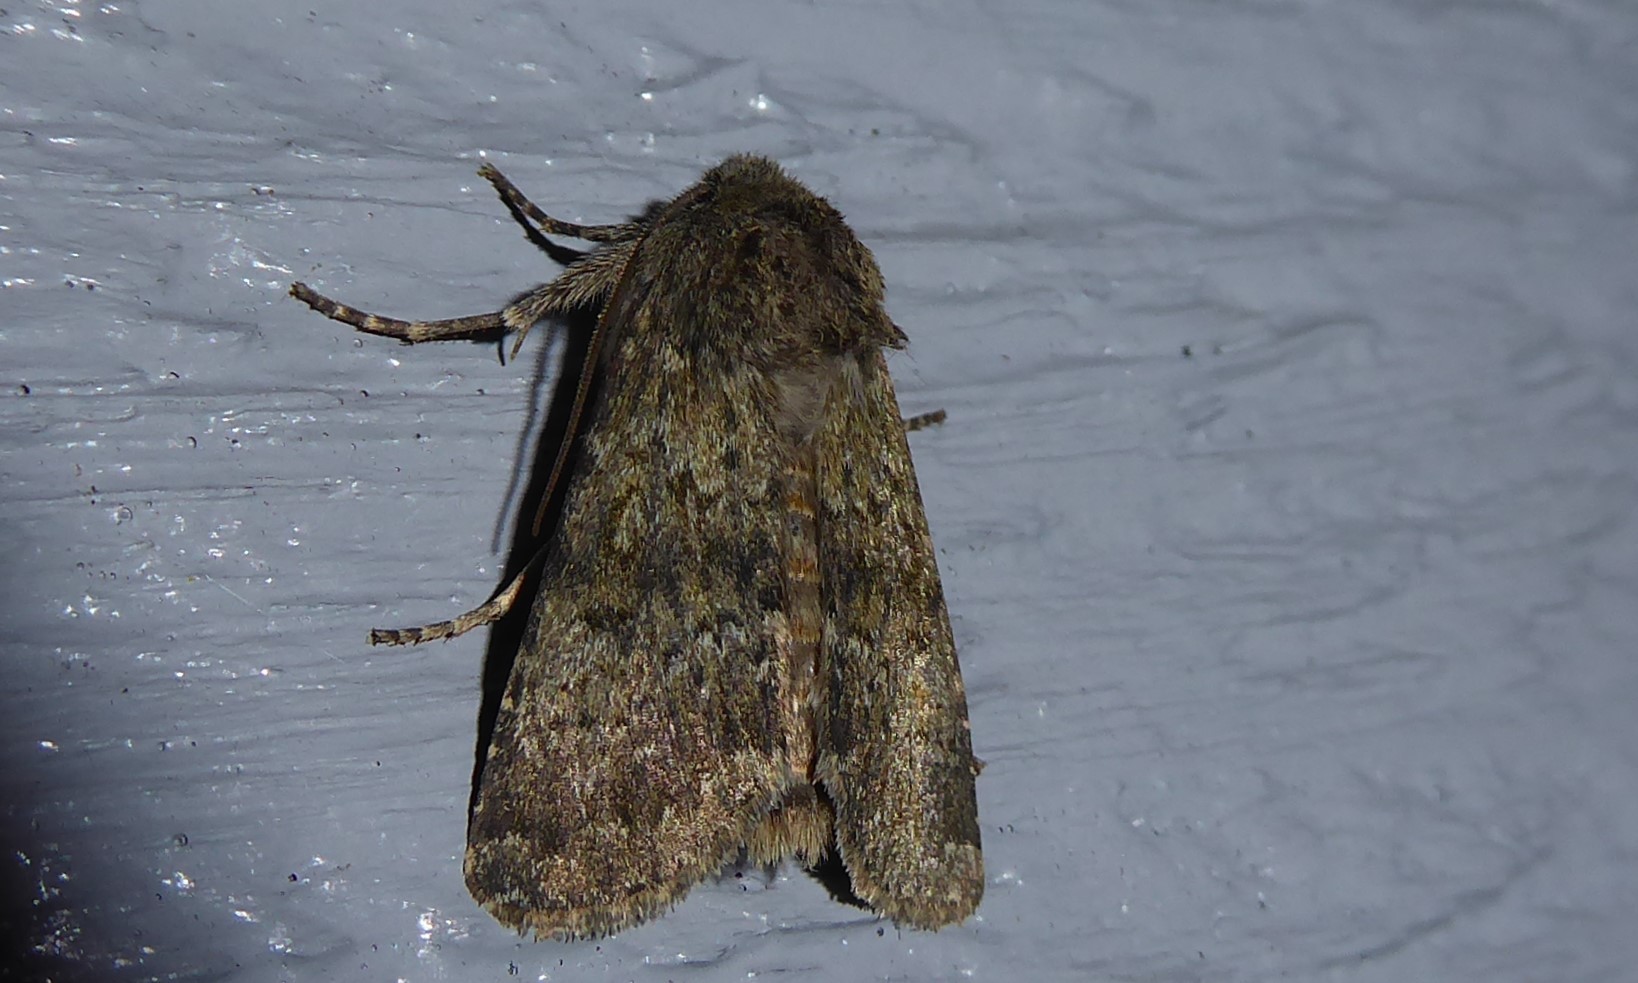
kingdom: Animalia
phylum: Arthropoda
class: Insecta
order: Lepidoptera
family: Noctuidae
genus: Ichneutica
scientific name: Ichneutica moderata
